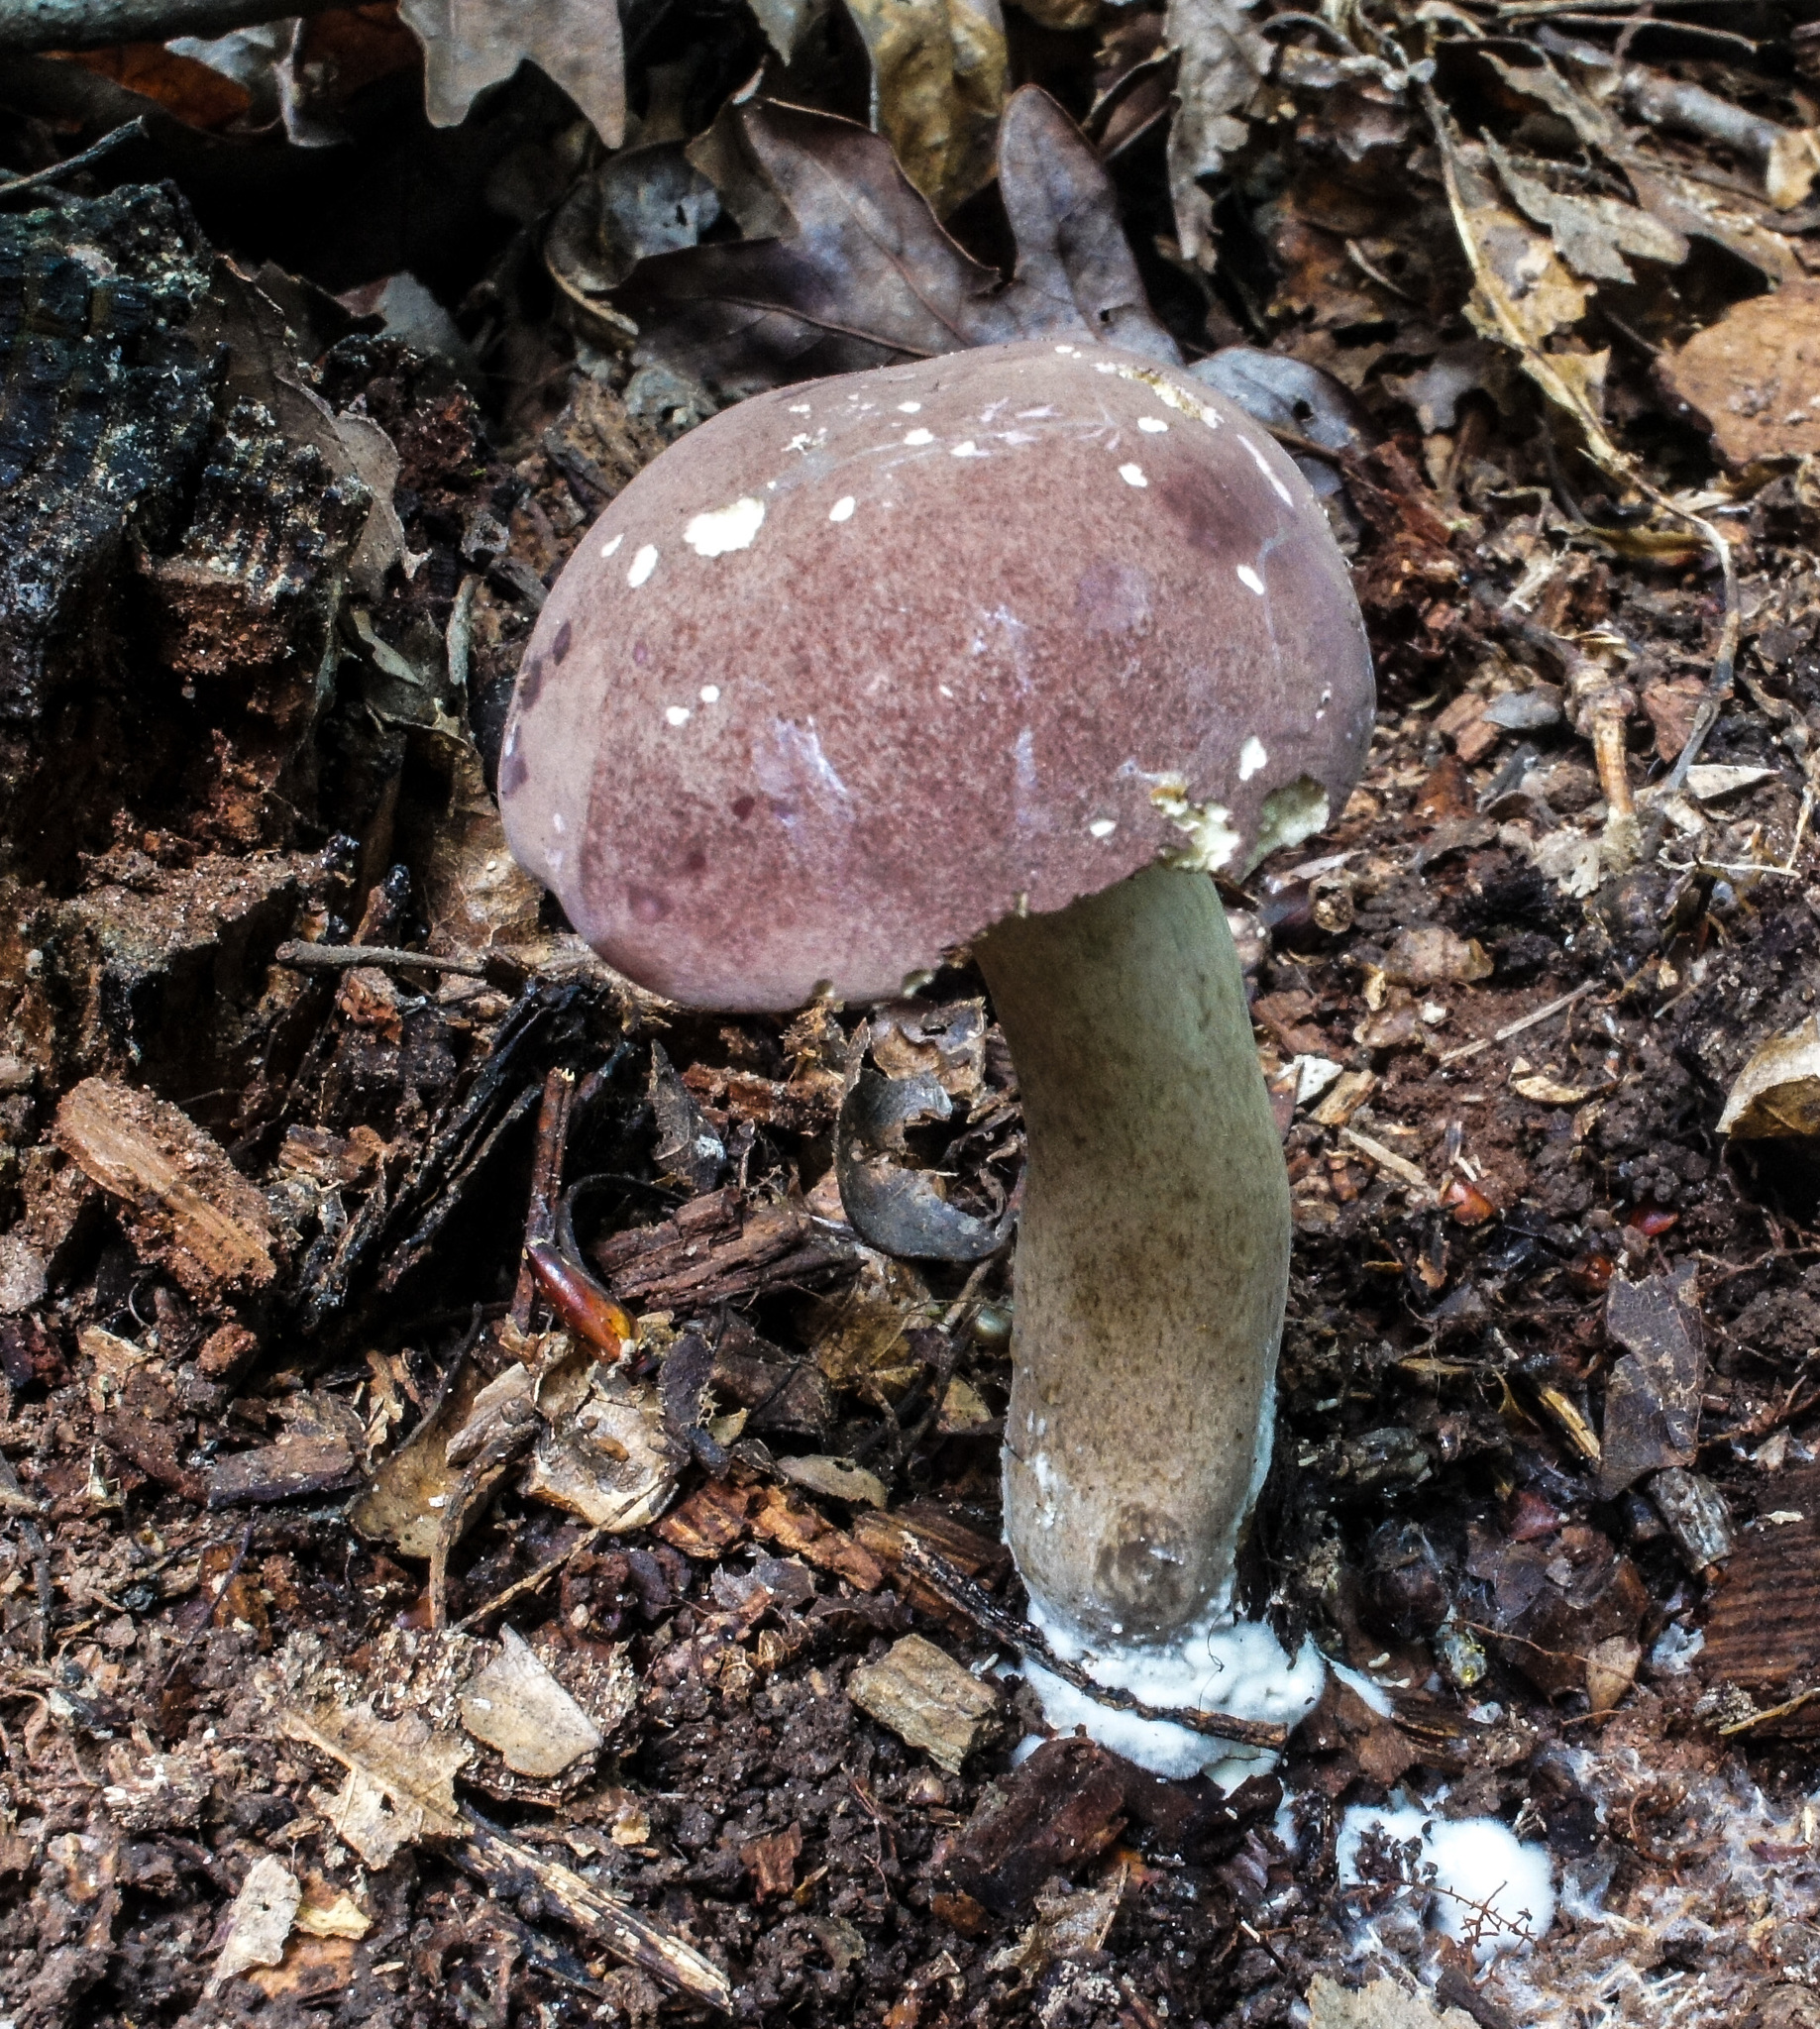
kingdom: Fungi
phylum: Basidiomycota
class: Agaricomycetes
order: Boletales
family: Boletaceae
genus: Tylopilus
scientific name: Tylopilus rubrobrunneus
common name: Reddish brown bitter bolete
